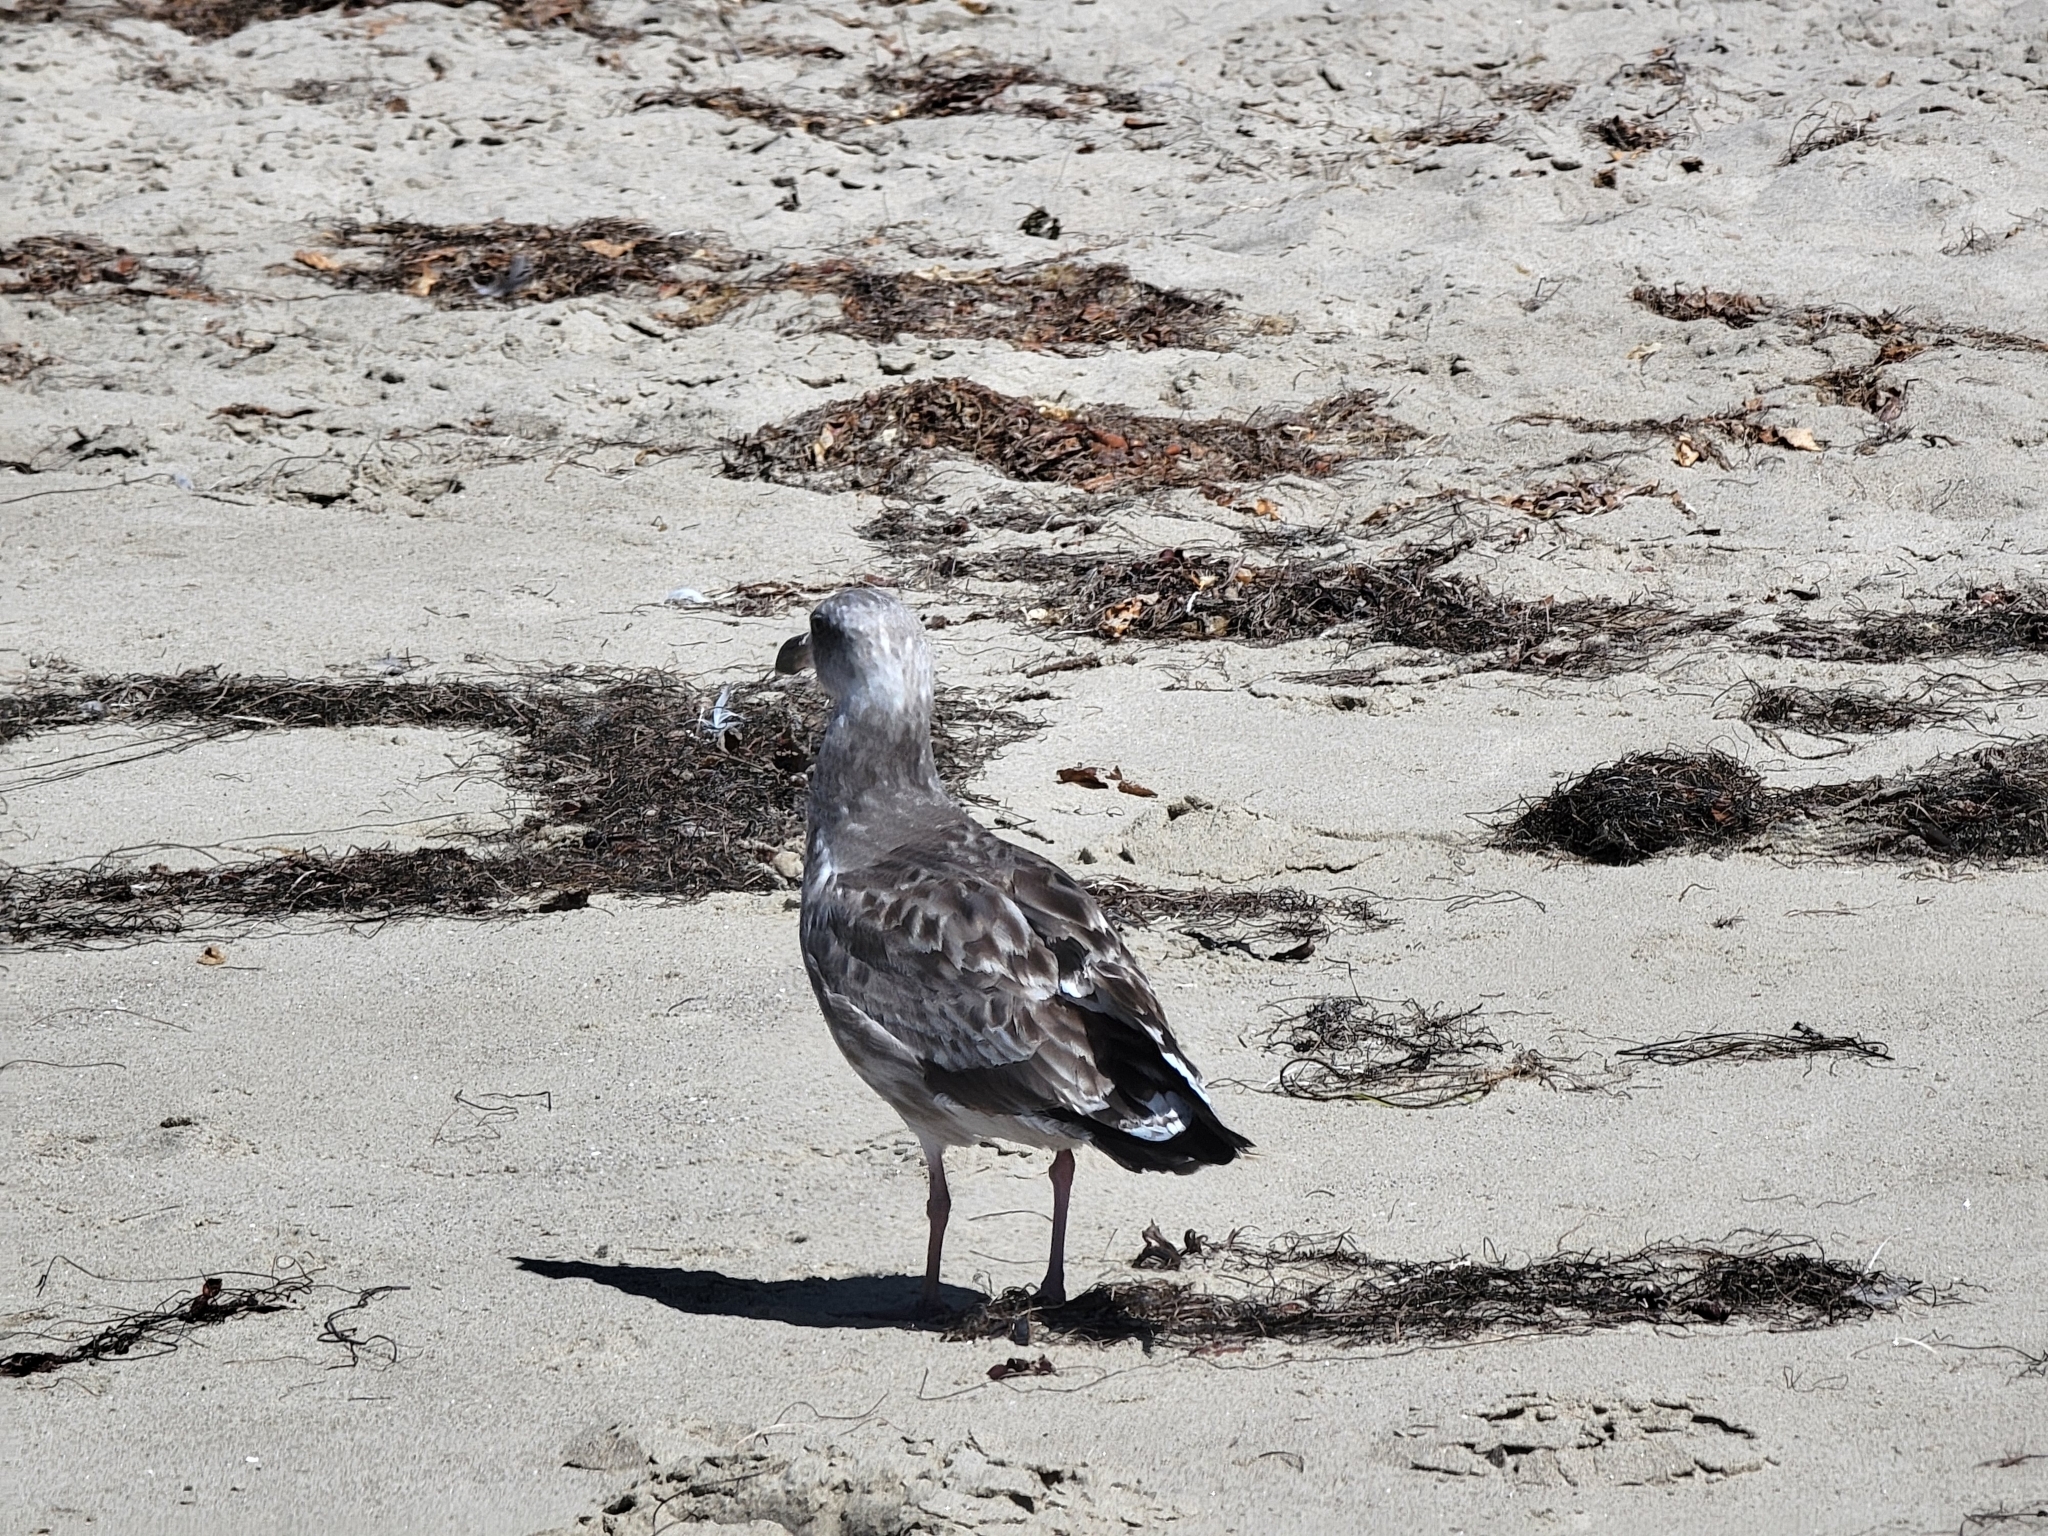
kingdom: Animalia
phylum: Chordata
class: Aves
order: Charadriiformes
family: Laridae
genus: Larus
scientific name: Larus occidentalis
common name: Western gull
